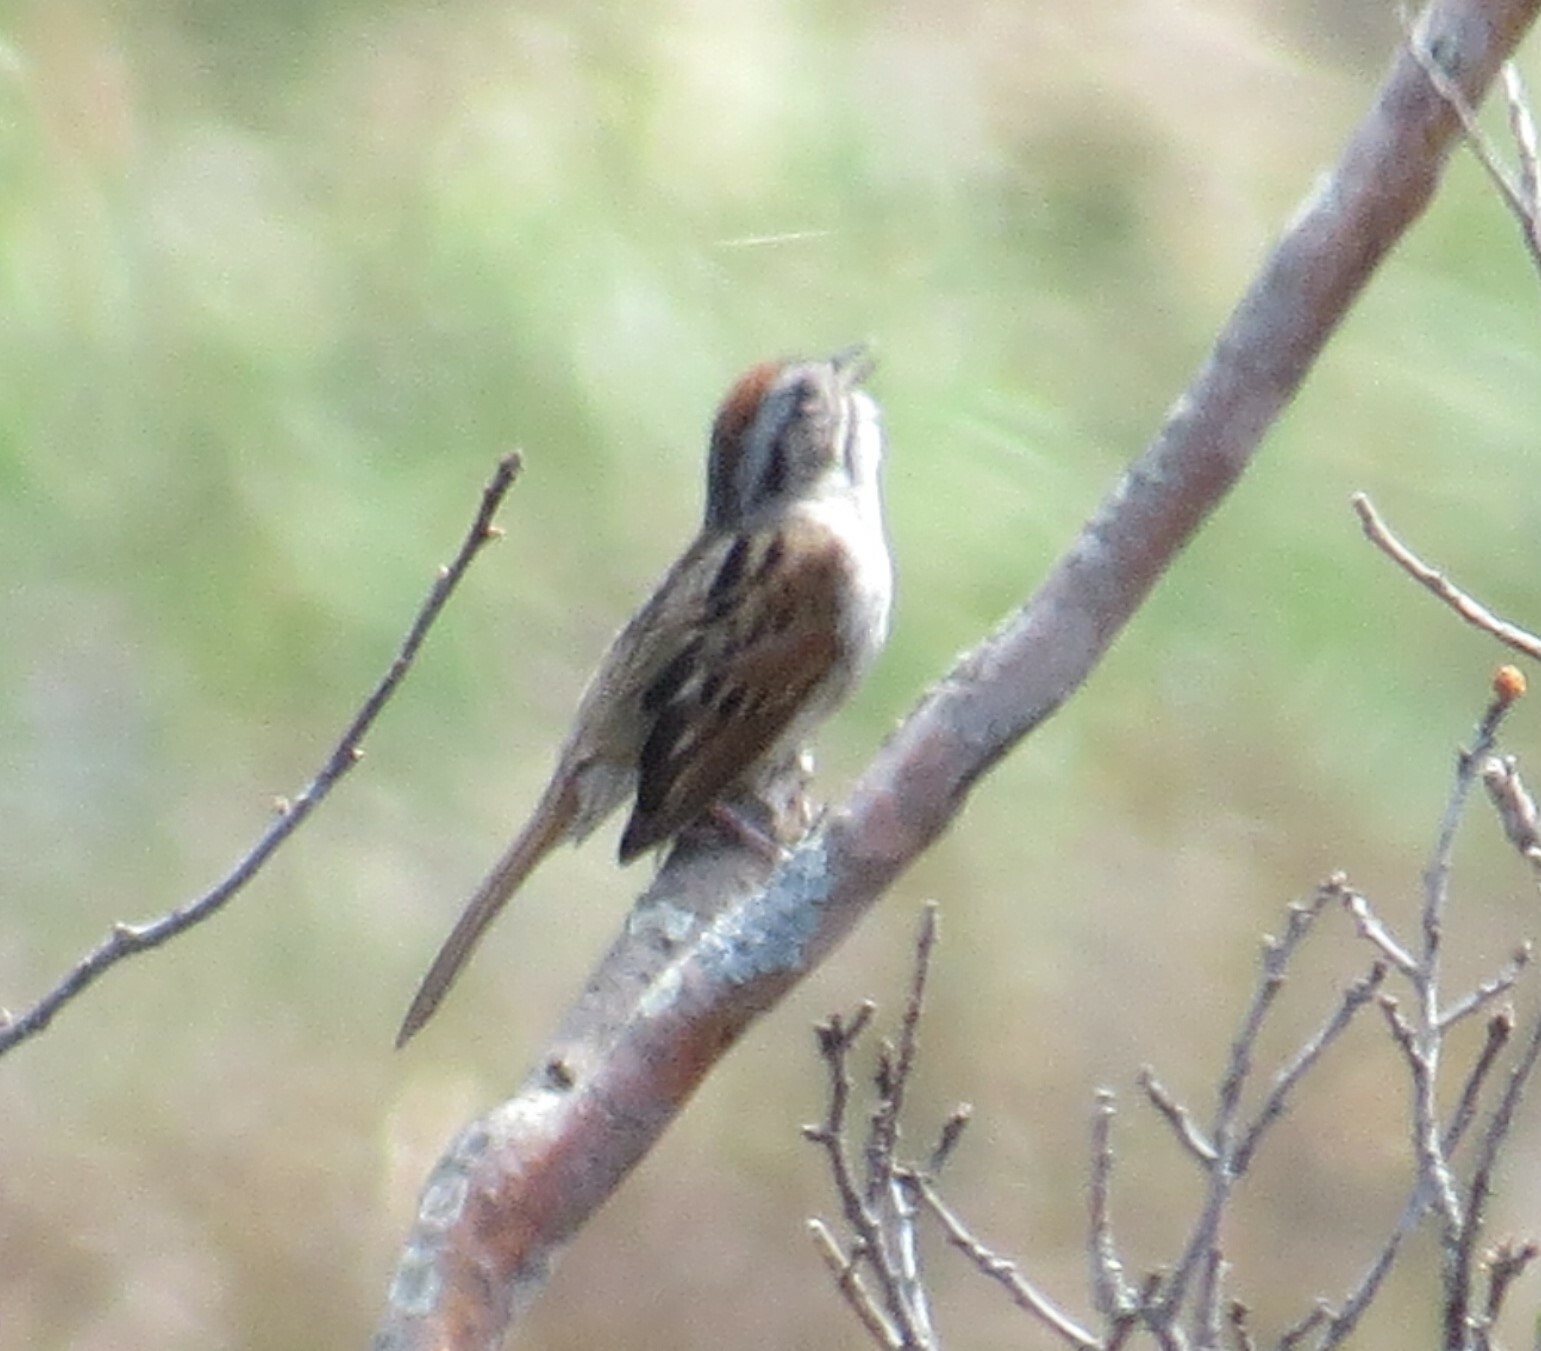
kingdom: Animalia
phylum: Chordata
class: Aves
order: Passeriformes
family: Passerellidae
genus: Melospiza
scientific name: Melospiza georgiana
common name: Swamp sparrow
